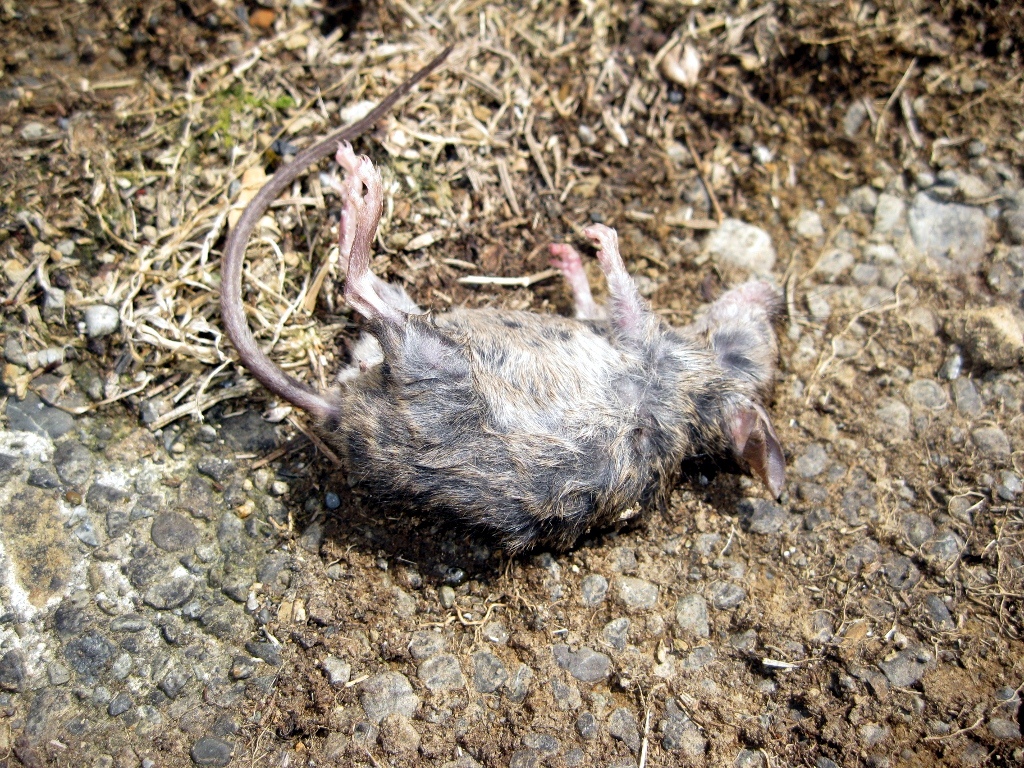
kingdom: Animalia
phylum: Chordata
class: Mammalia
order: Rodentia
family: Muridae
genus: Mus
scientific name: Mus musculus
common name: House mouse
